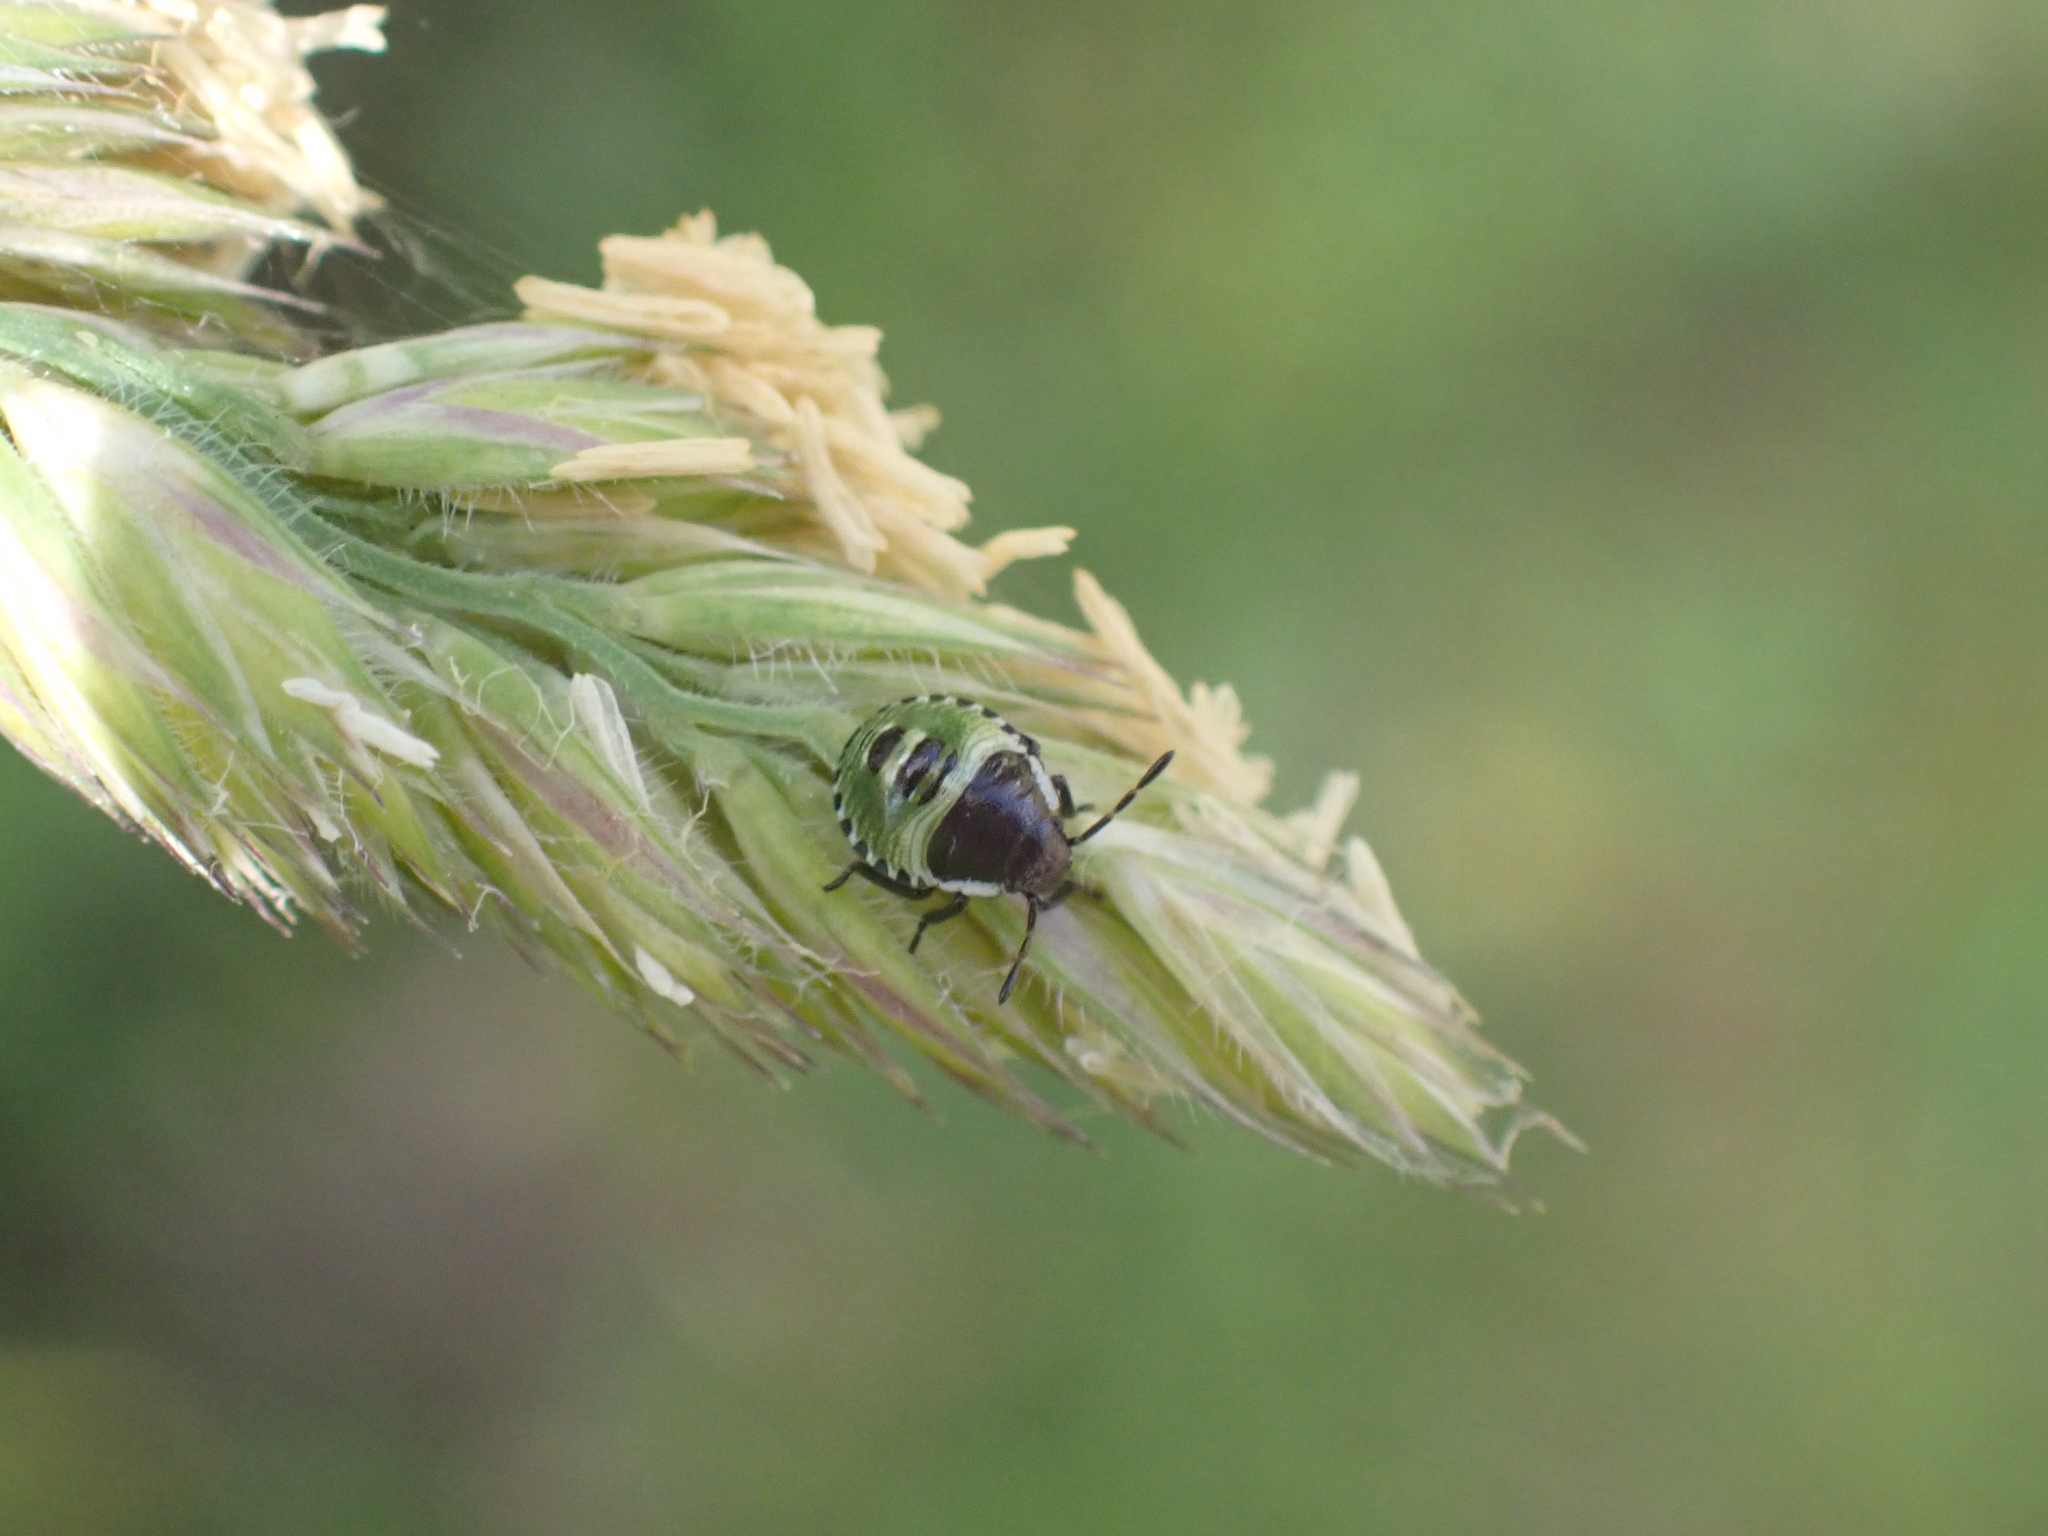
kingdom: Animalia
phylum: Arthropoda
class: Insecta
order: Hemiptera
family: Pentatomidae
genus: Palomena
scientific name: Palomena prasina
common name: Green shieldbug
